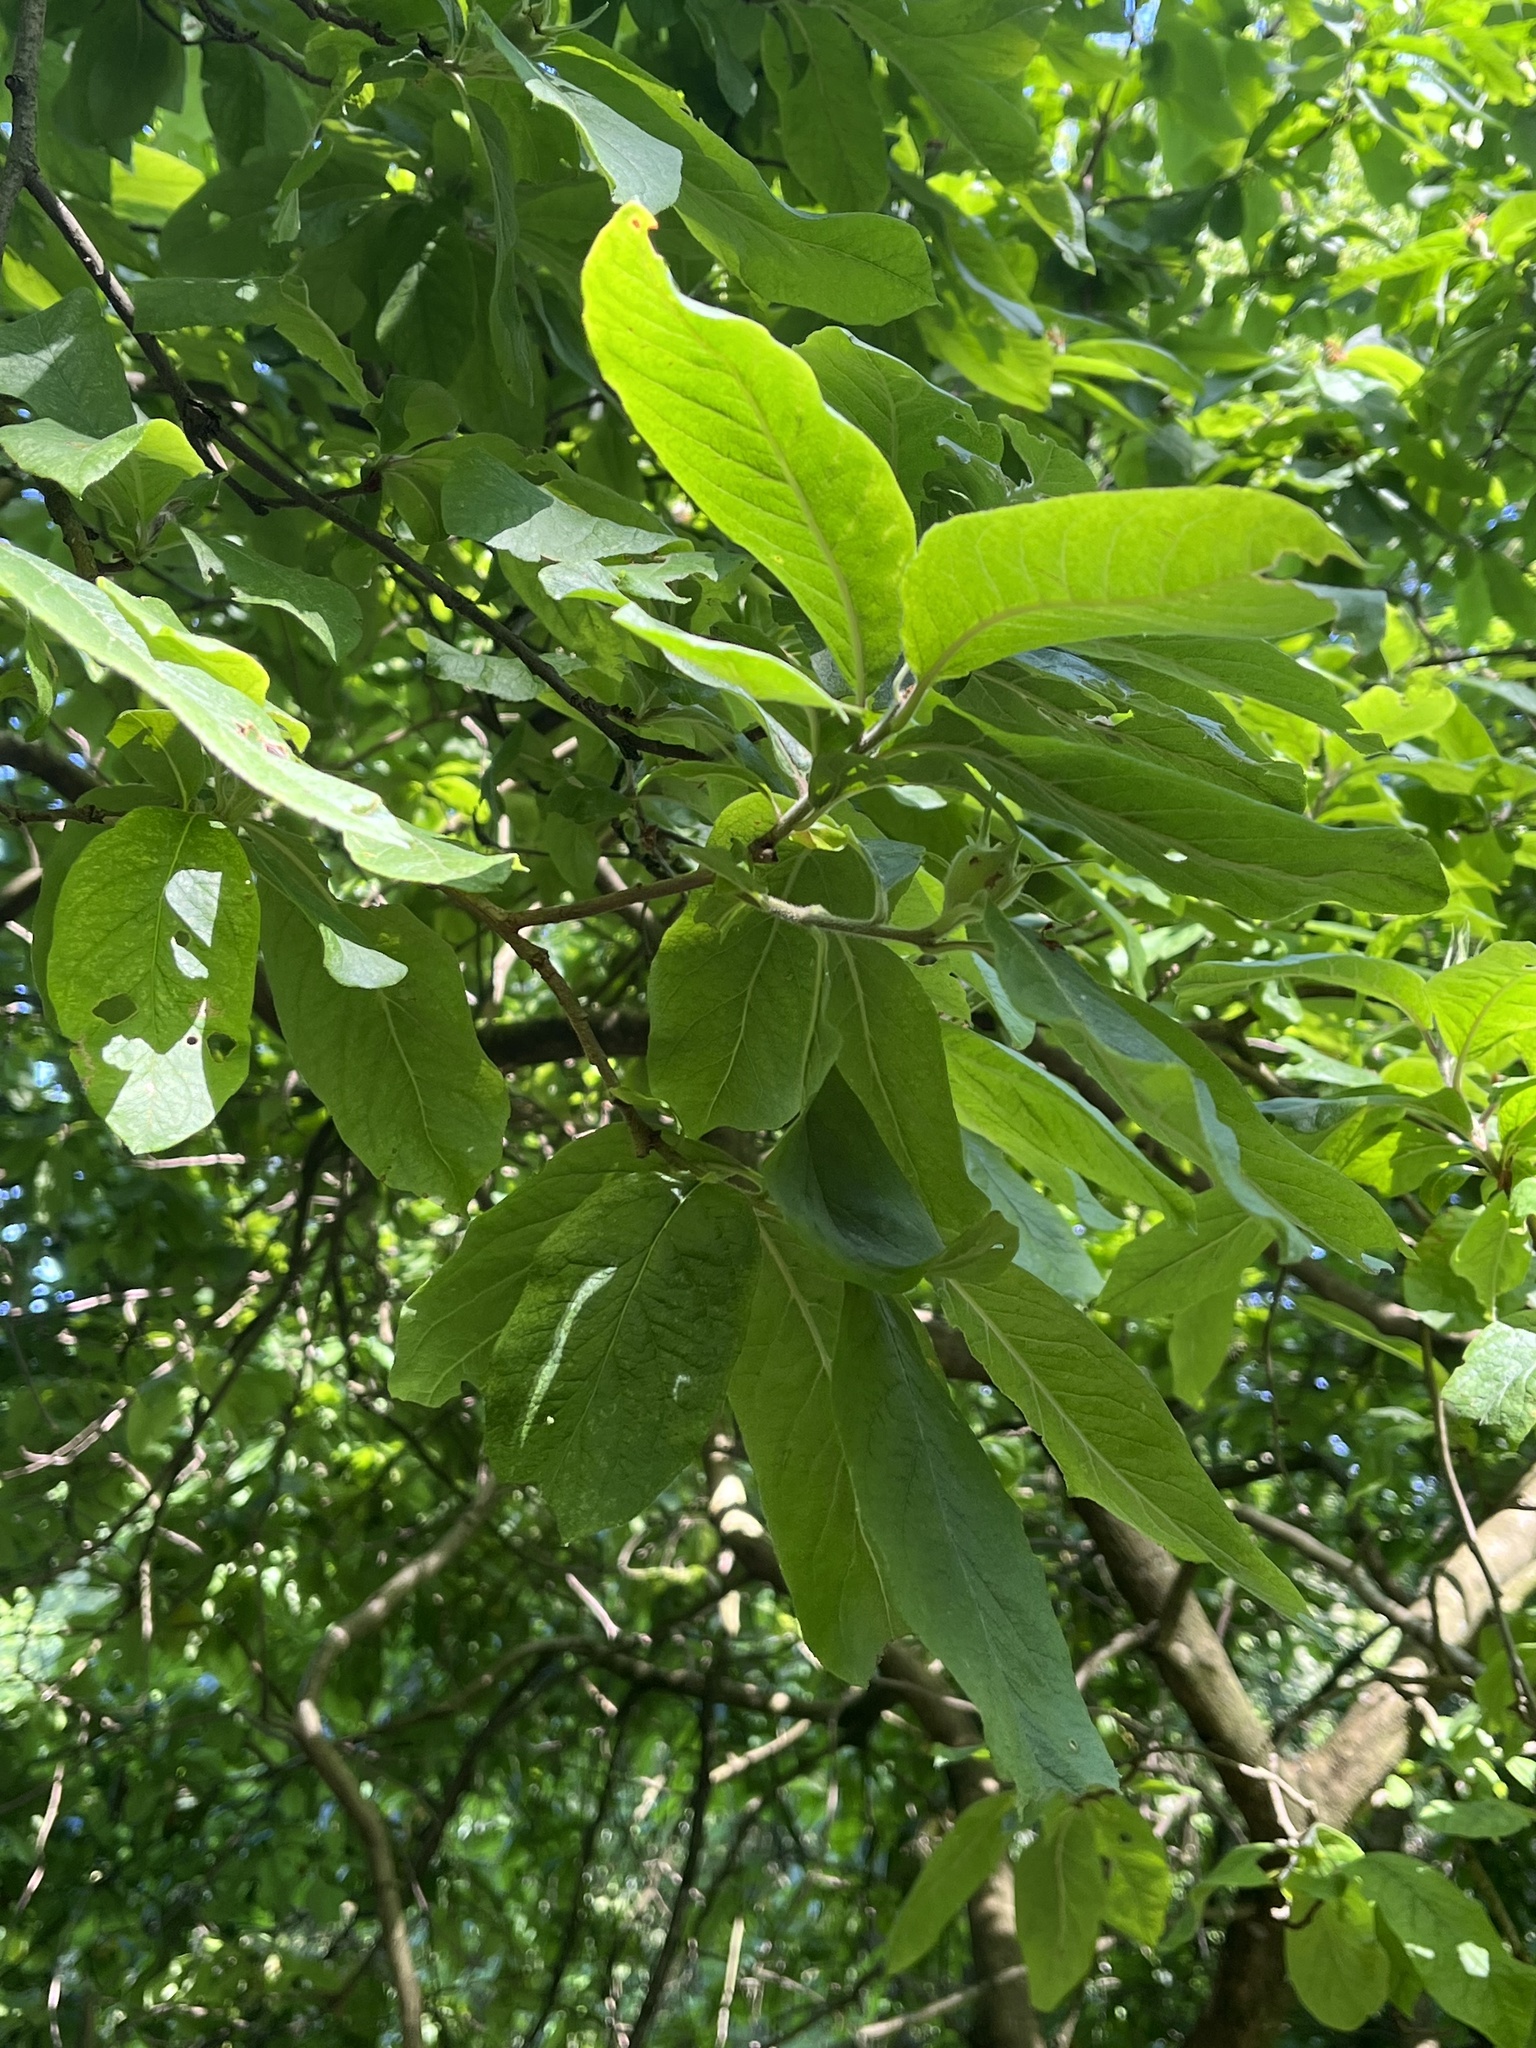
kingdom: Plantae
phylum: Tracheophyta
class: Magnoliopsida
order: Fagales
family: Fagaceae
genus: Castanea
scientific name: Castanea sativa
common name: Sweet chestnut
